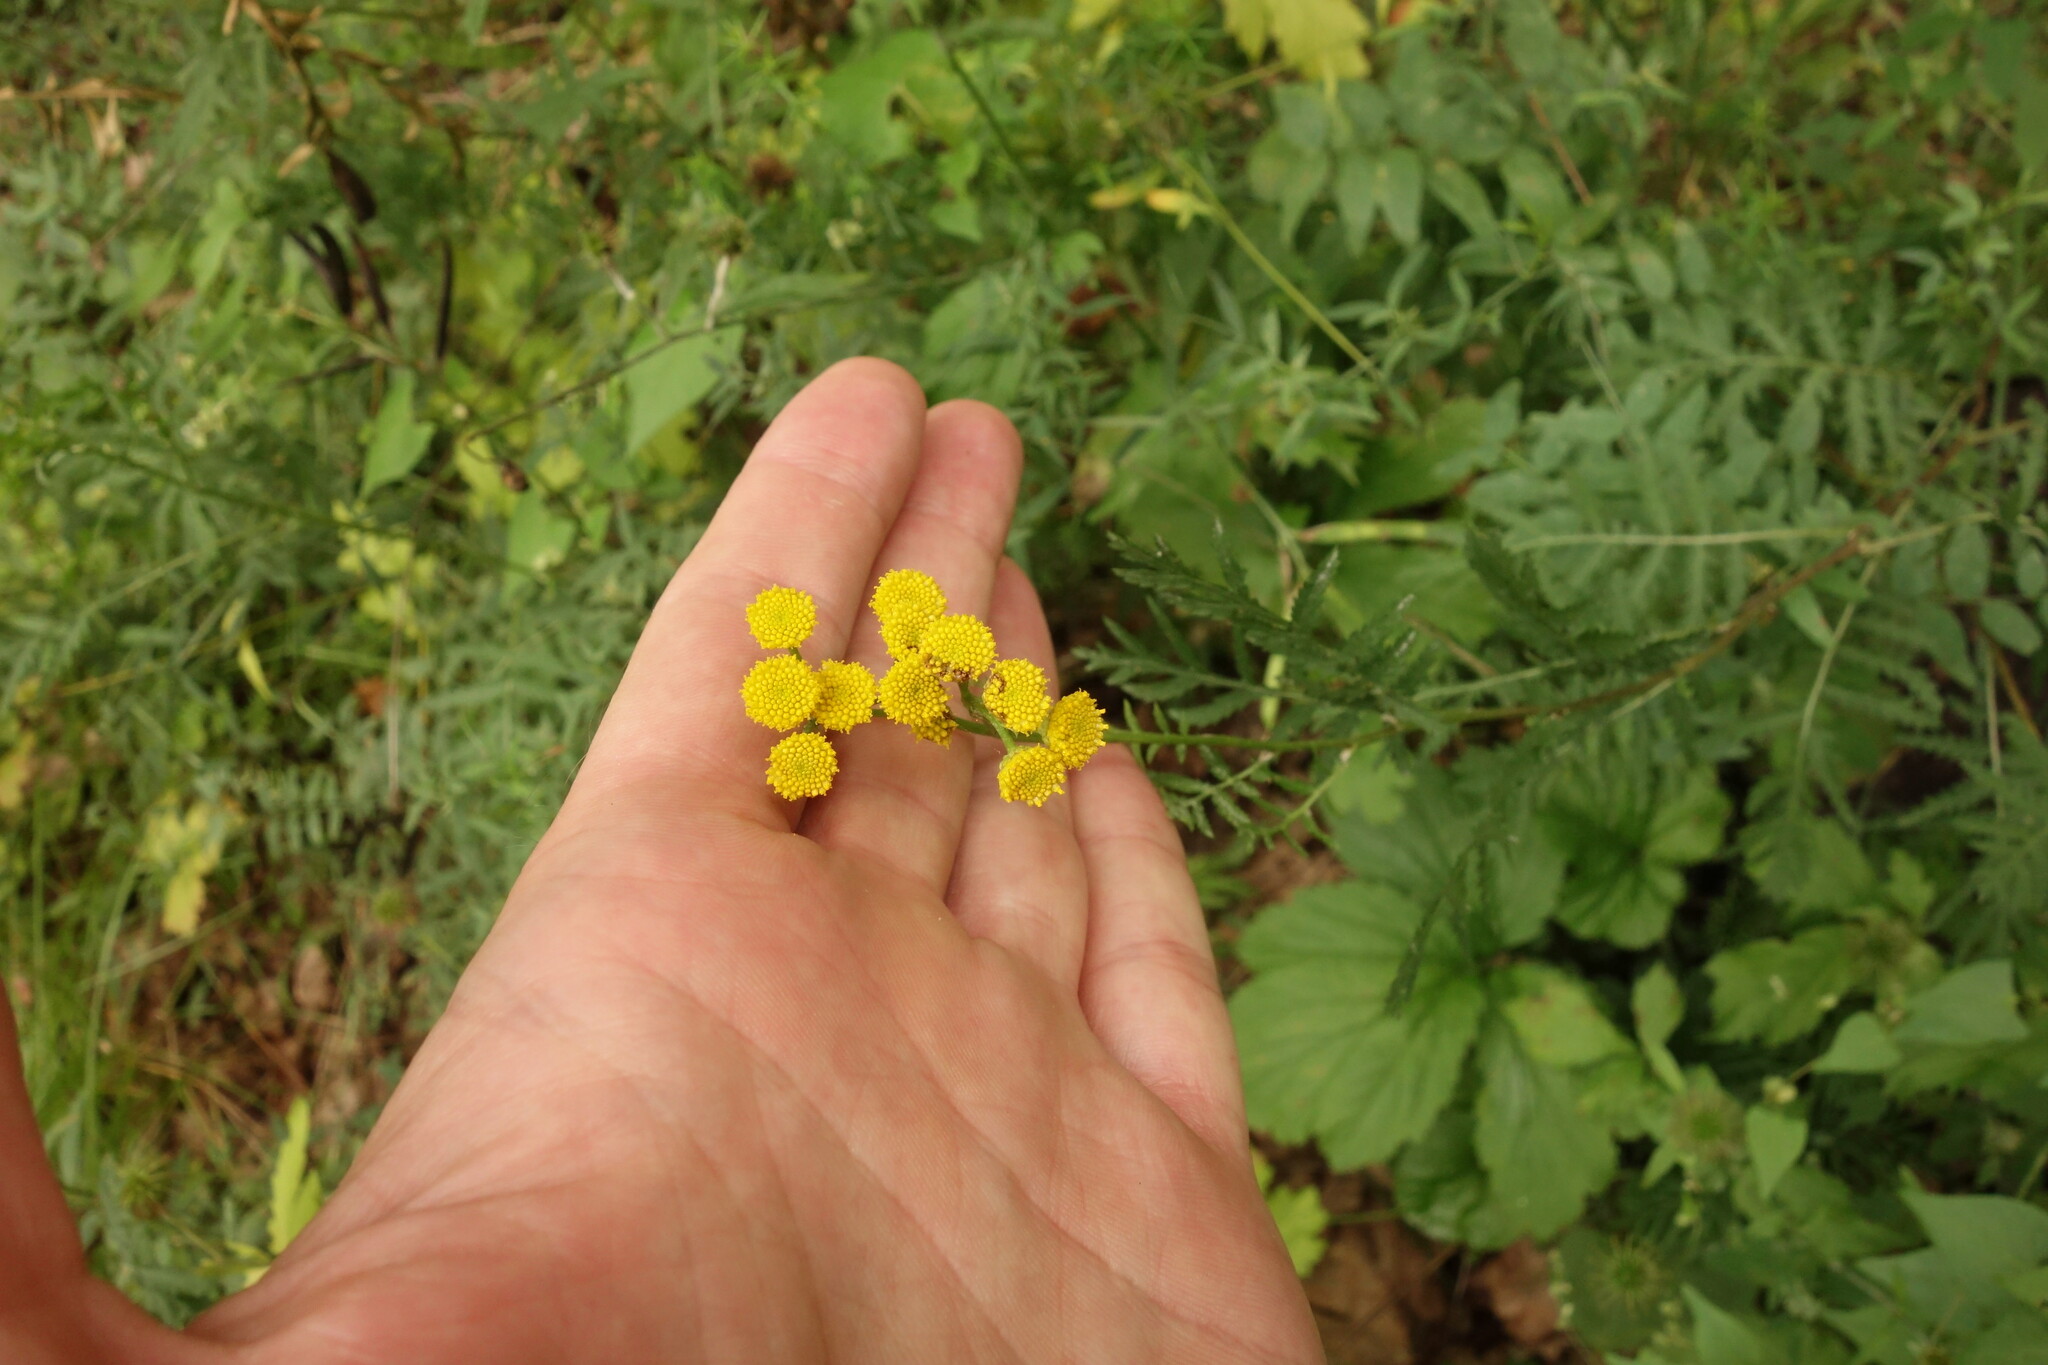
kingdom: Plantae
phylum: Tracheophyta
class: Magnoliopsida
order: Asterales
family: Asteraceae
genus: Tanacetum
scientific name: Tanacetum vulgare
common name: Common tansy
